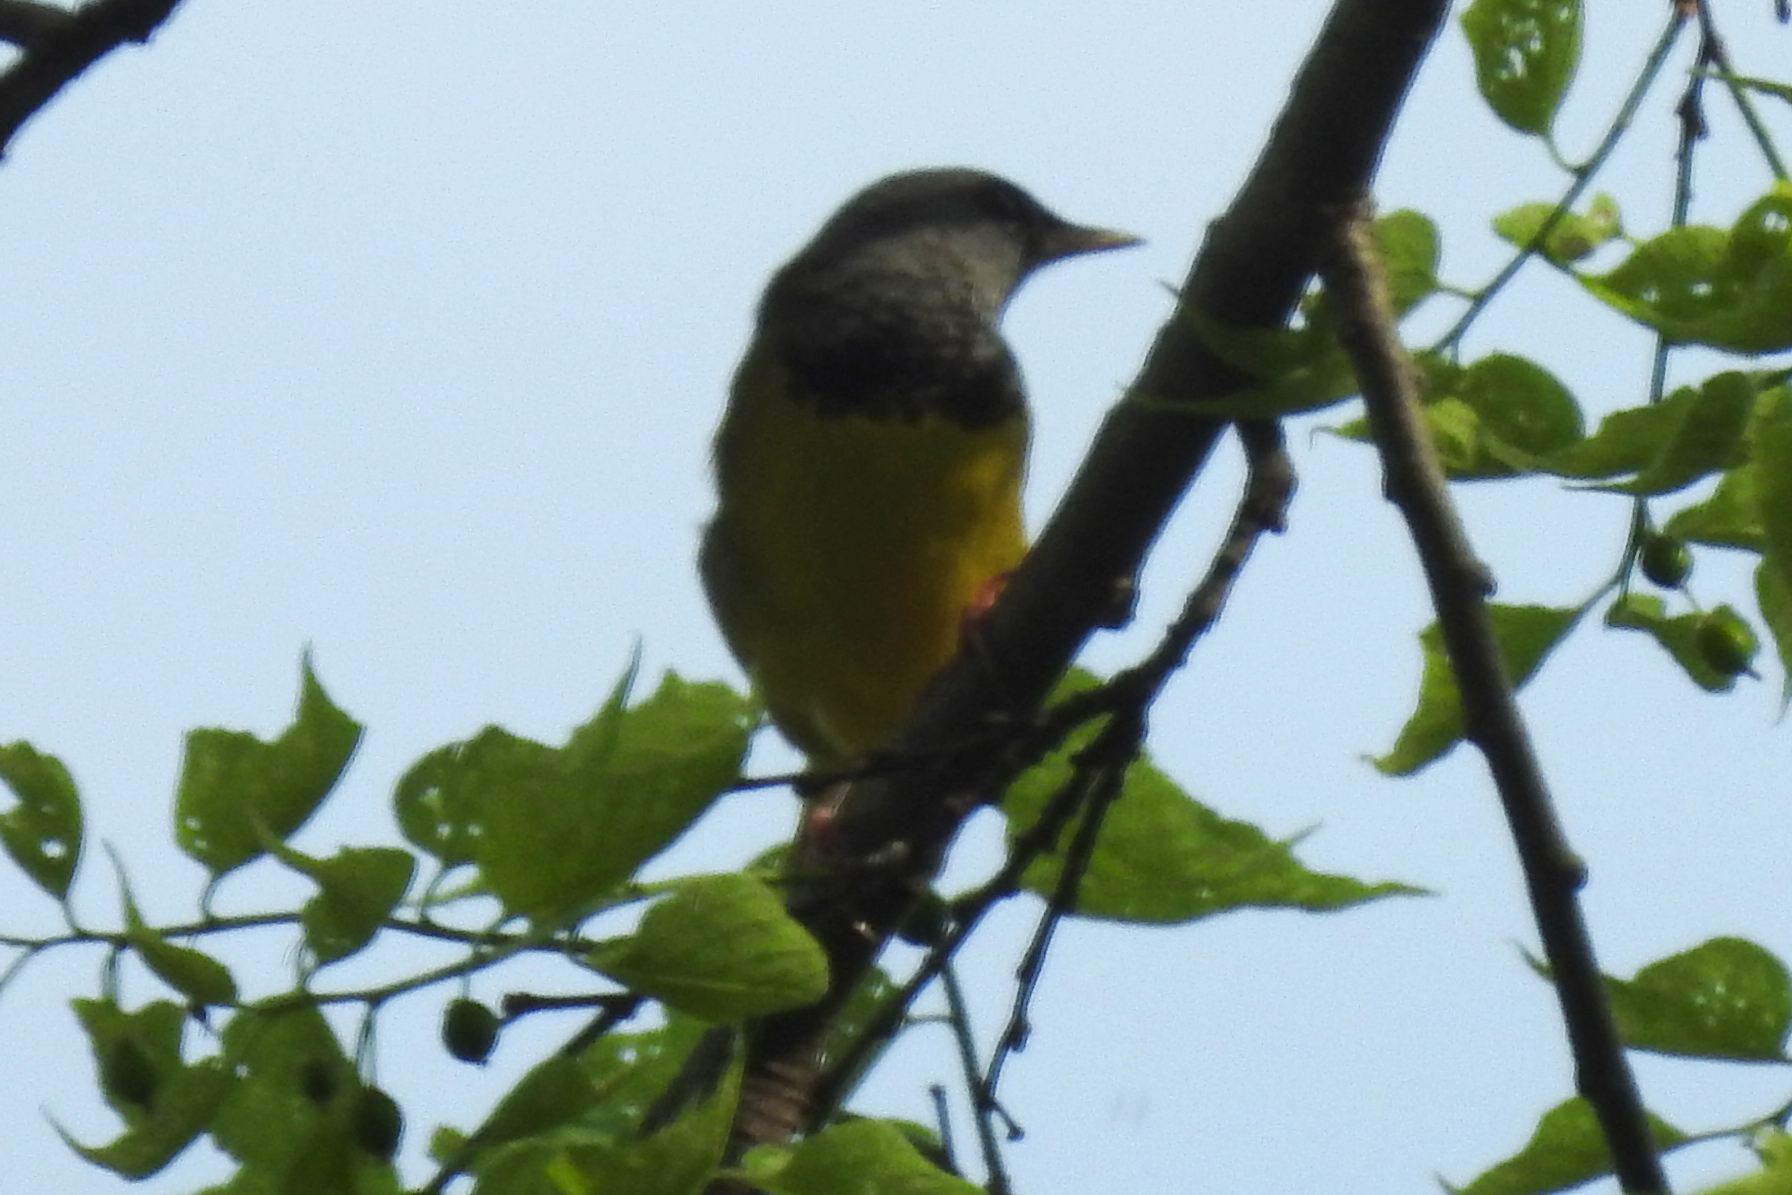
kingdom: Animalia
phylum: Chordata
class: Aves
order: Passeriformes
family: Parulidae
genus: Geothlypis
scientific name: Geothlypis philadelphia
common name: Mourning warbler
